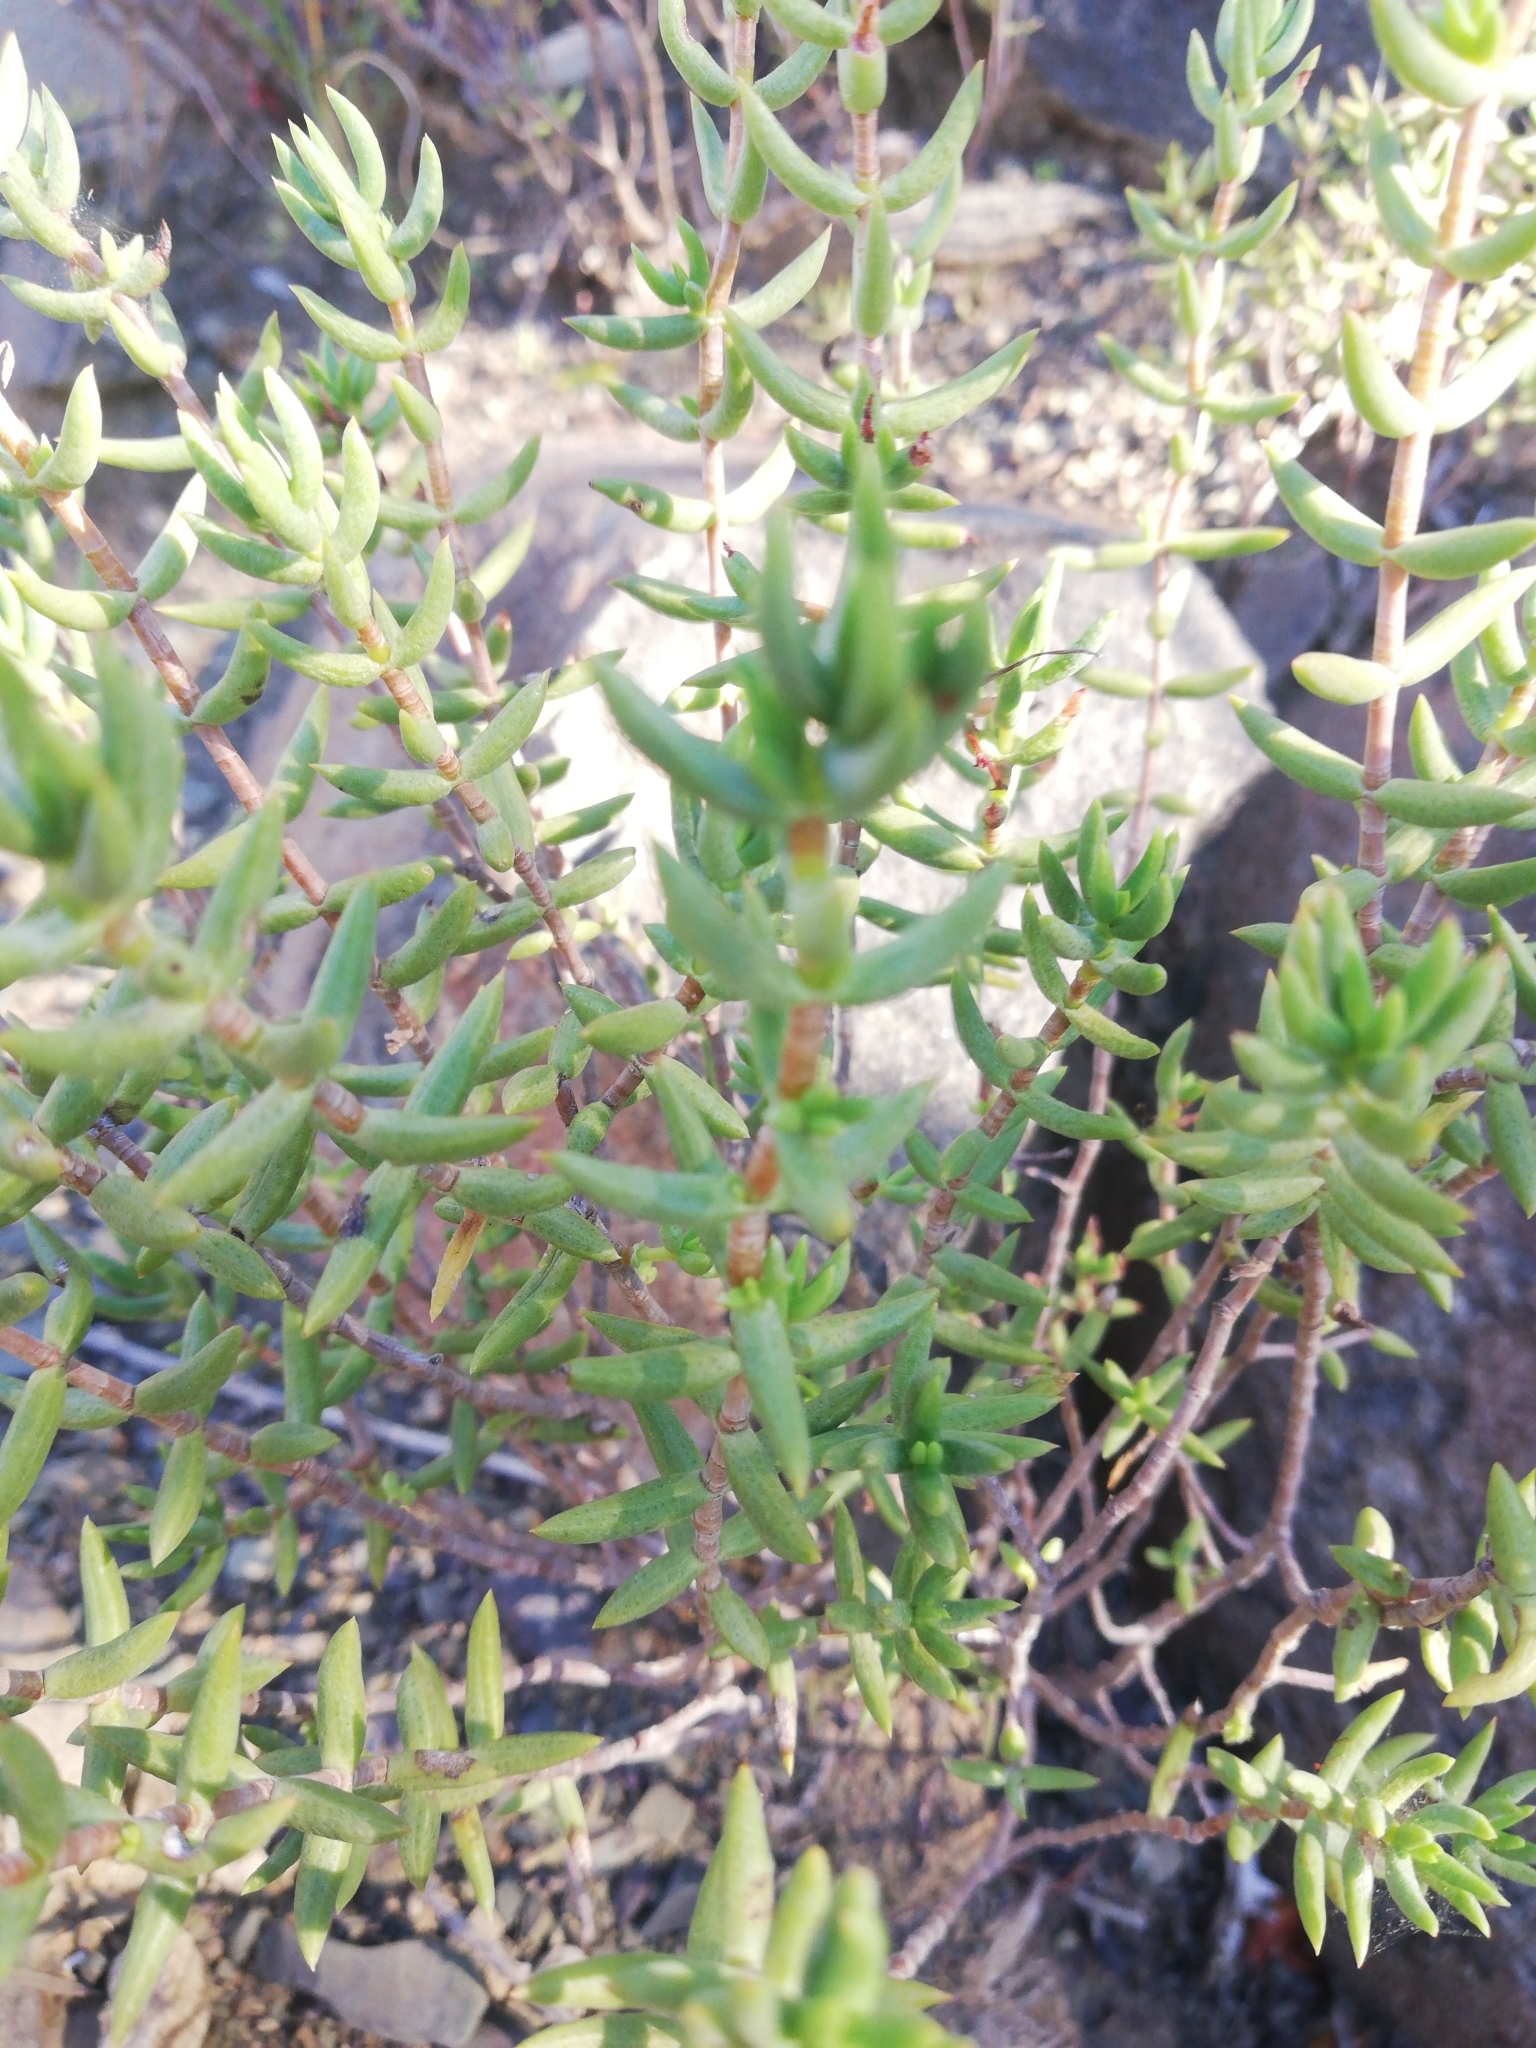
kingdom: Plantae
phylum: Tracheophyta
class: Magnoliopsida
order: Saxifragales
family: Crassulaceae
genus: Crassula
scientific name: Crassula tetragona
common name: Pygmyweed
